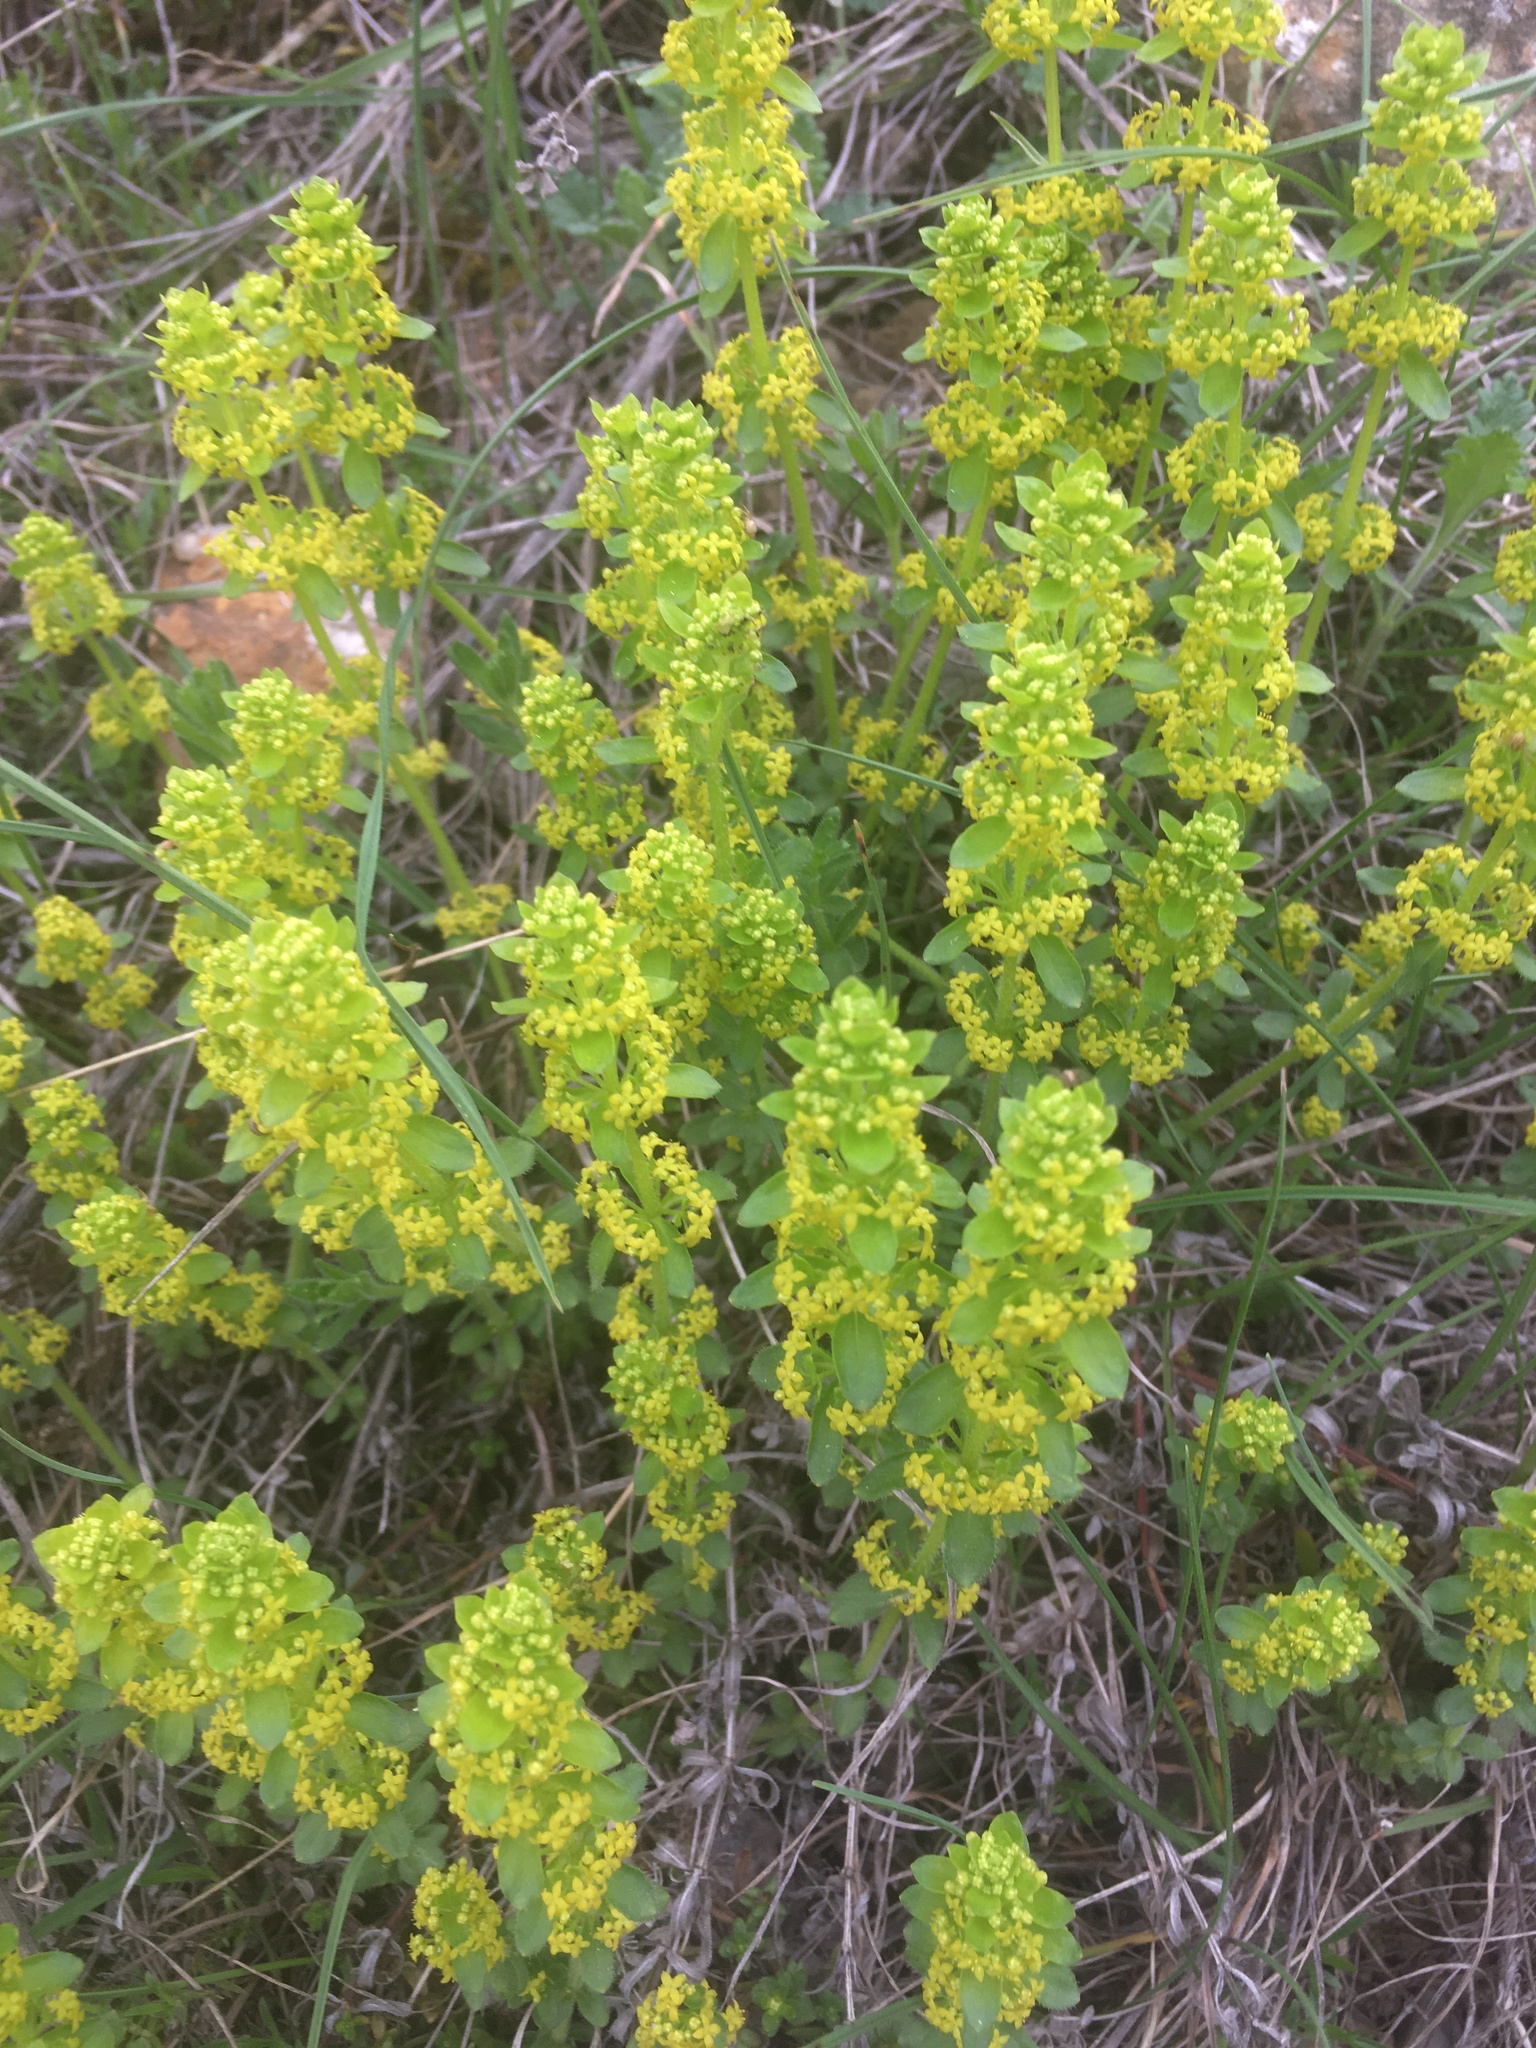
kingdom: Plantae
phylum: Tracheophyta
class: Magnoliopsida
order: Gentianales
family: Rubiaceae
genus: Cruciata
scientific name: Cruciata taurica
